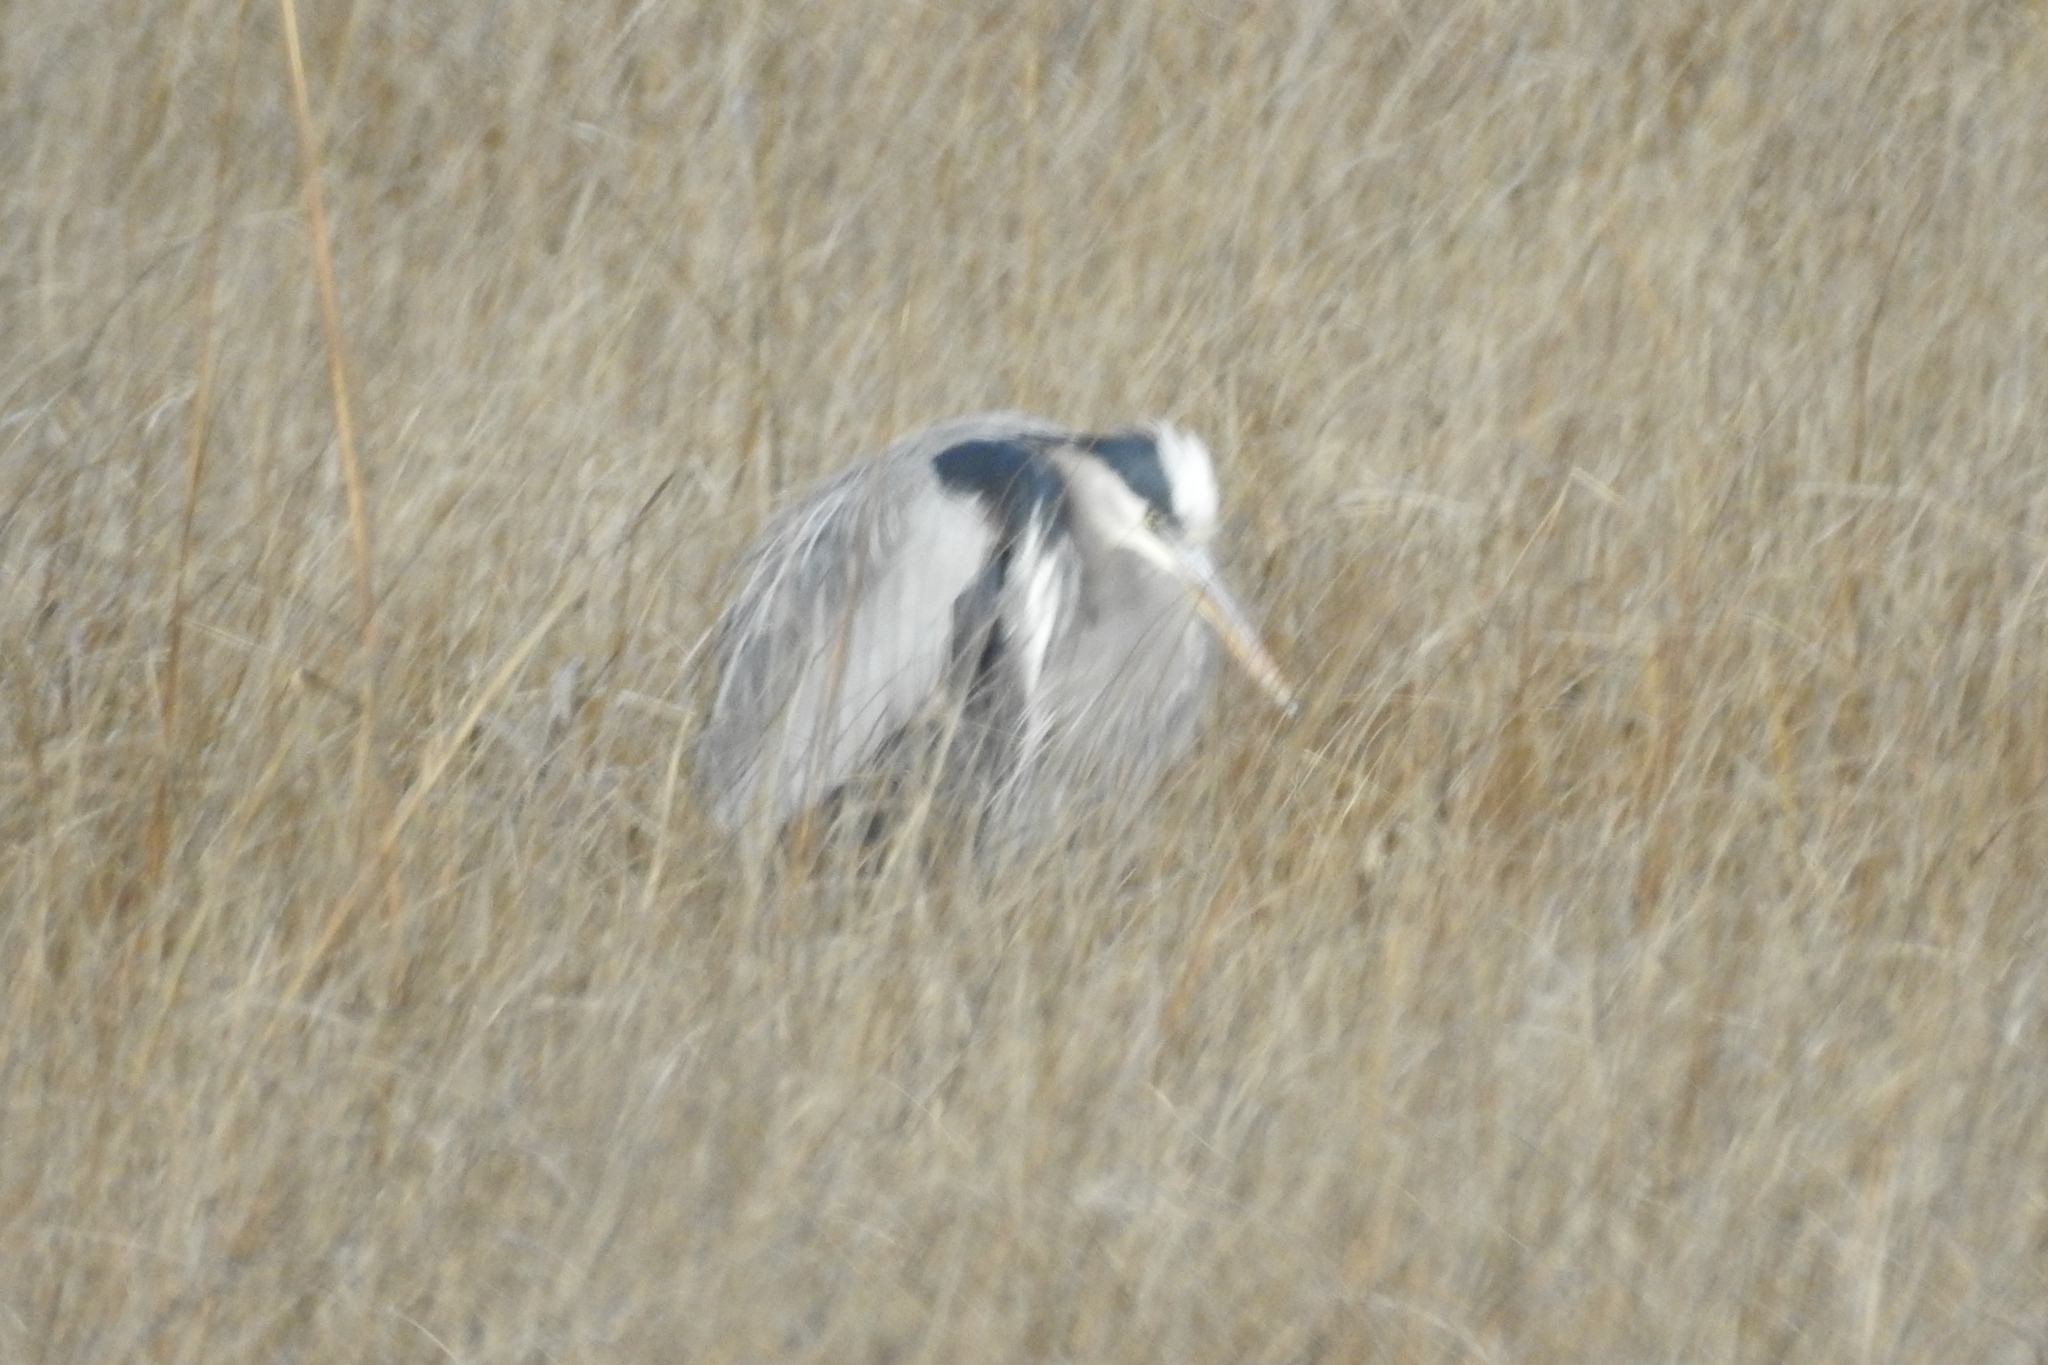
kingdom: Animalia
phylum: Chordata
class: Aves
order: Pelecaniformes
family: Ardeidae
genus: Ardea
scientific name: Ardea herodias
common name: Great blue heron
